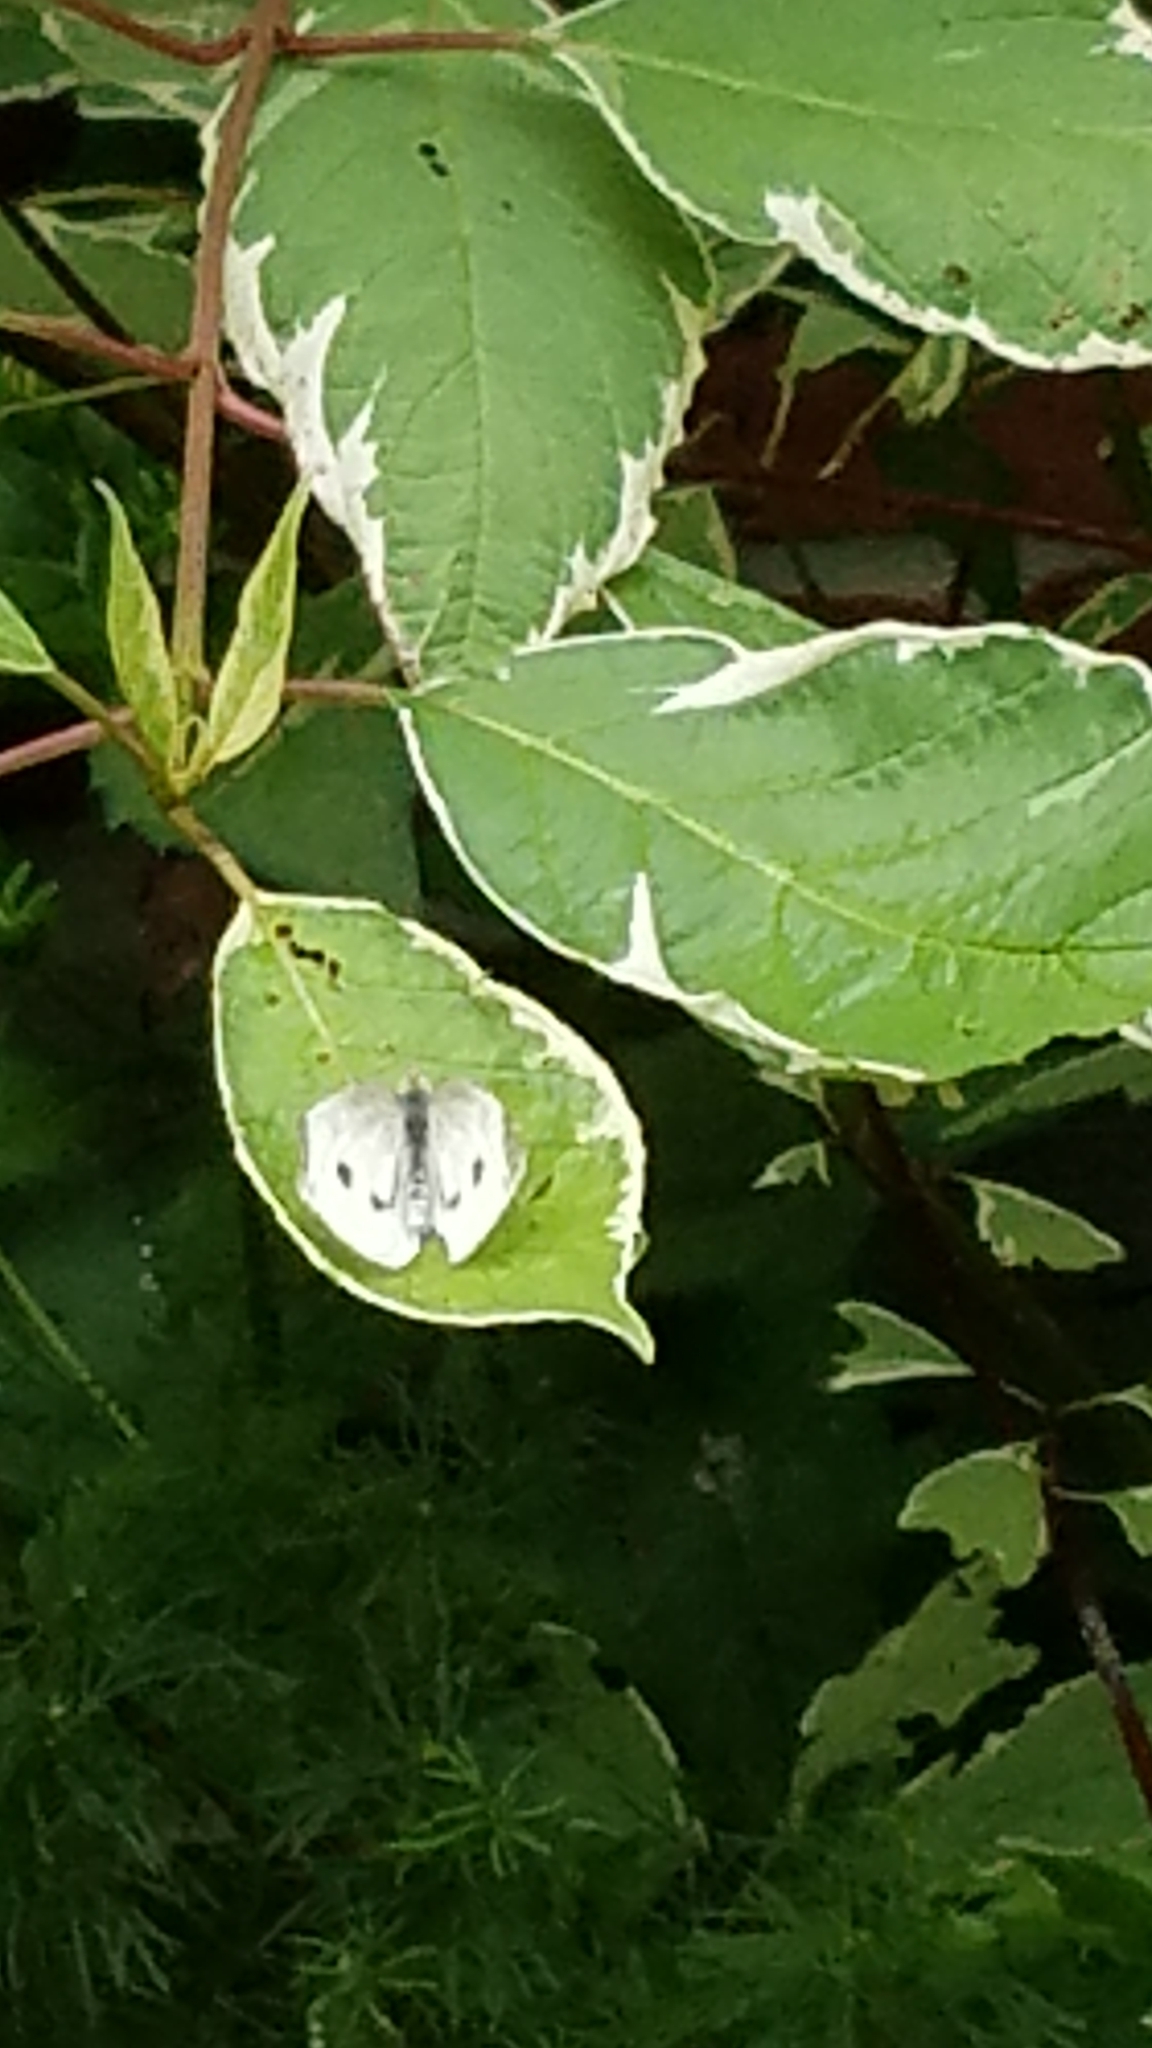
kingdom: Animalia
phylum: Arthropoda
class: Insecta
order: Lepidoptera
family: Pieridae
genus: Pieris
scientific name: Pieris rapae
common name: Small white
